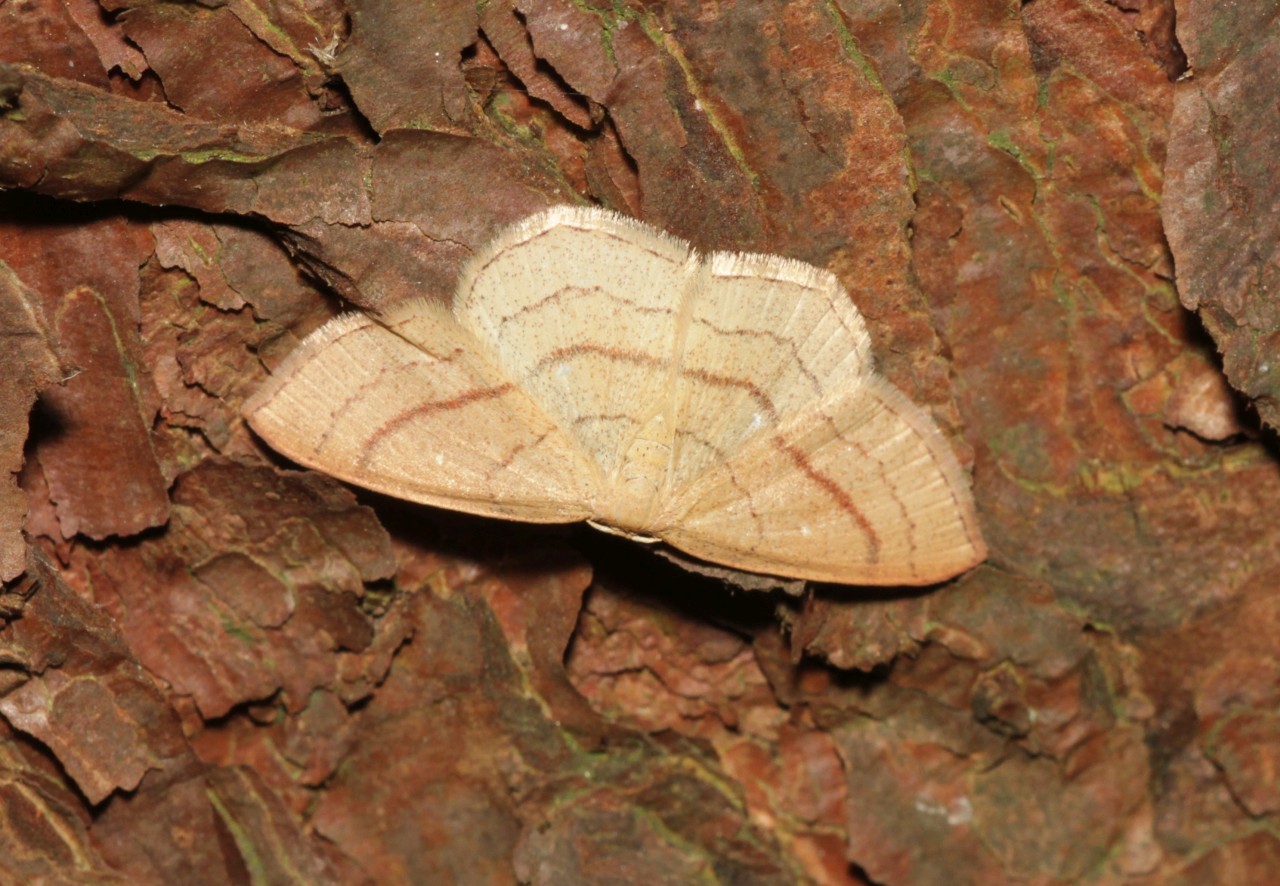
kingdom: Animalia
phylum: Arthropoda
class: Insecta
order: Lepidoptera
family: Geometridae
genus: Cyclophora
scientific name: Cyclophora linearia
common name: Clay triple-lines
